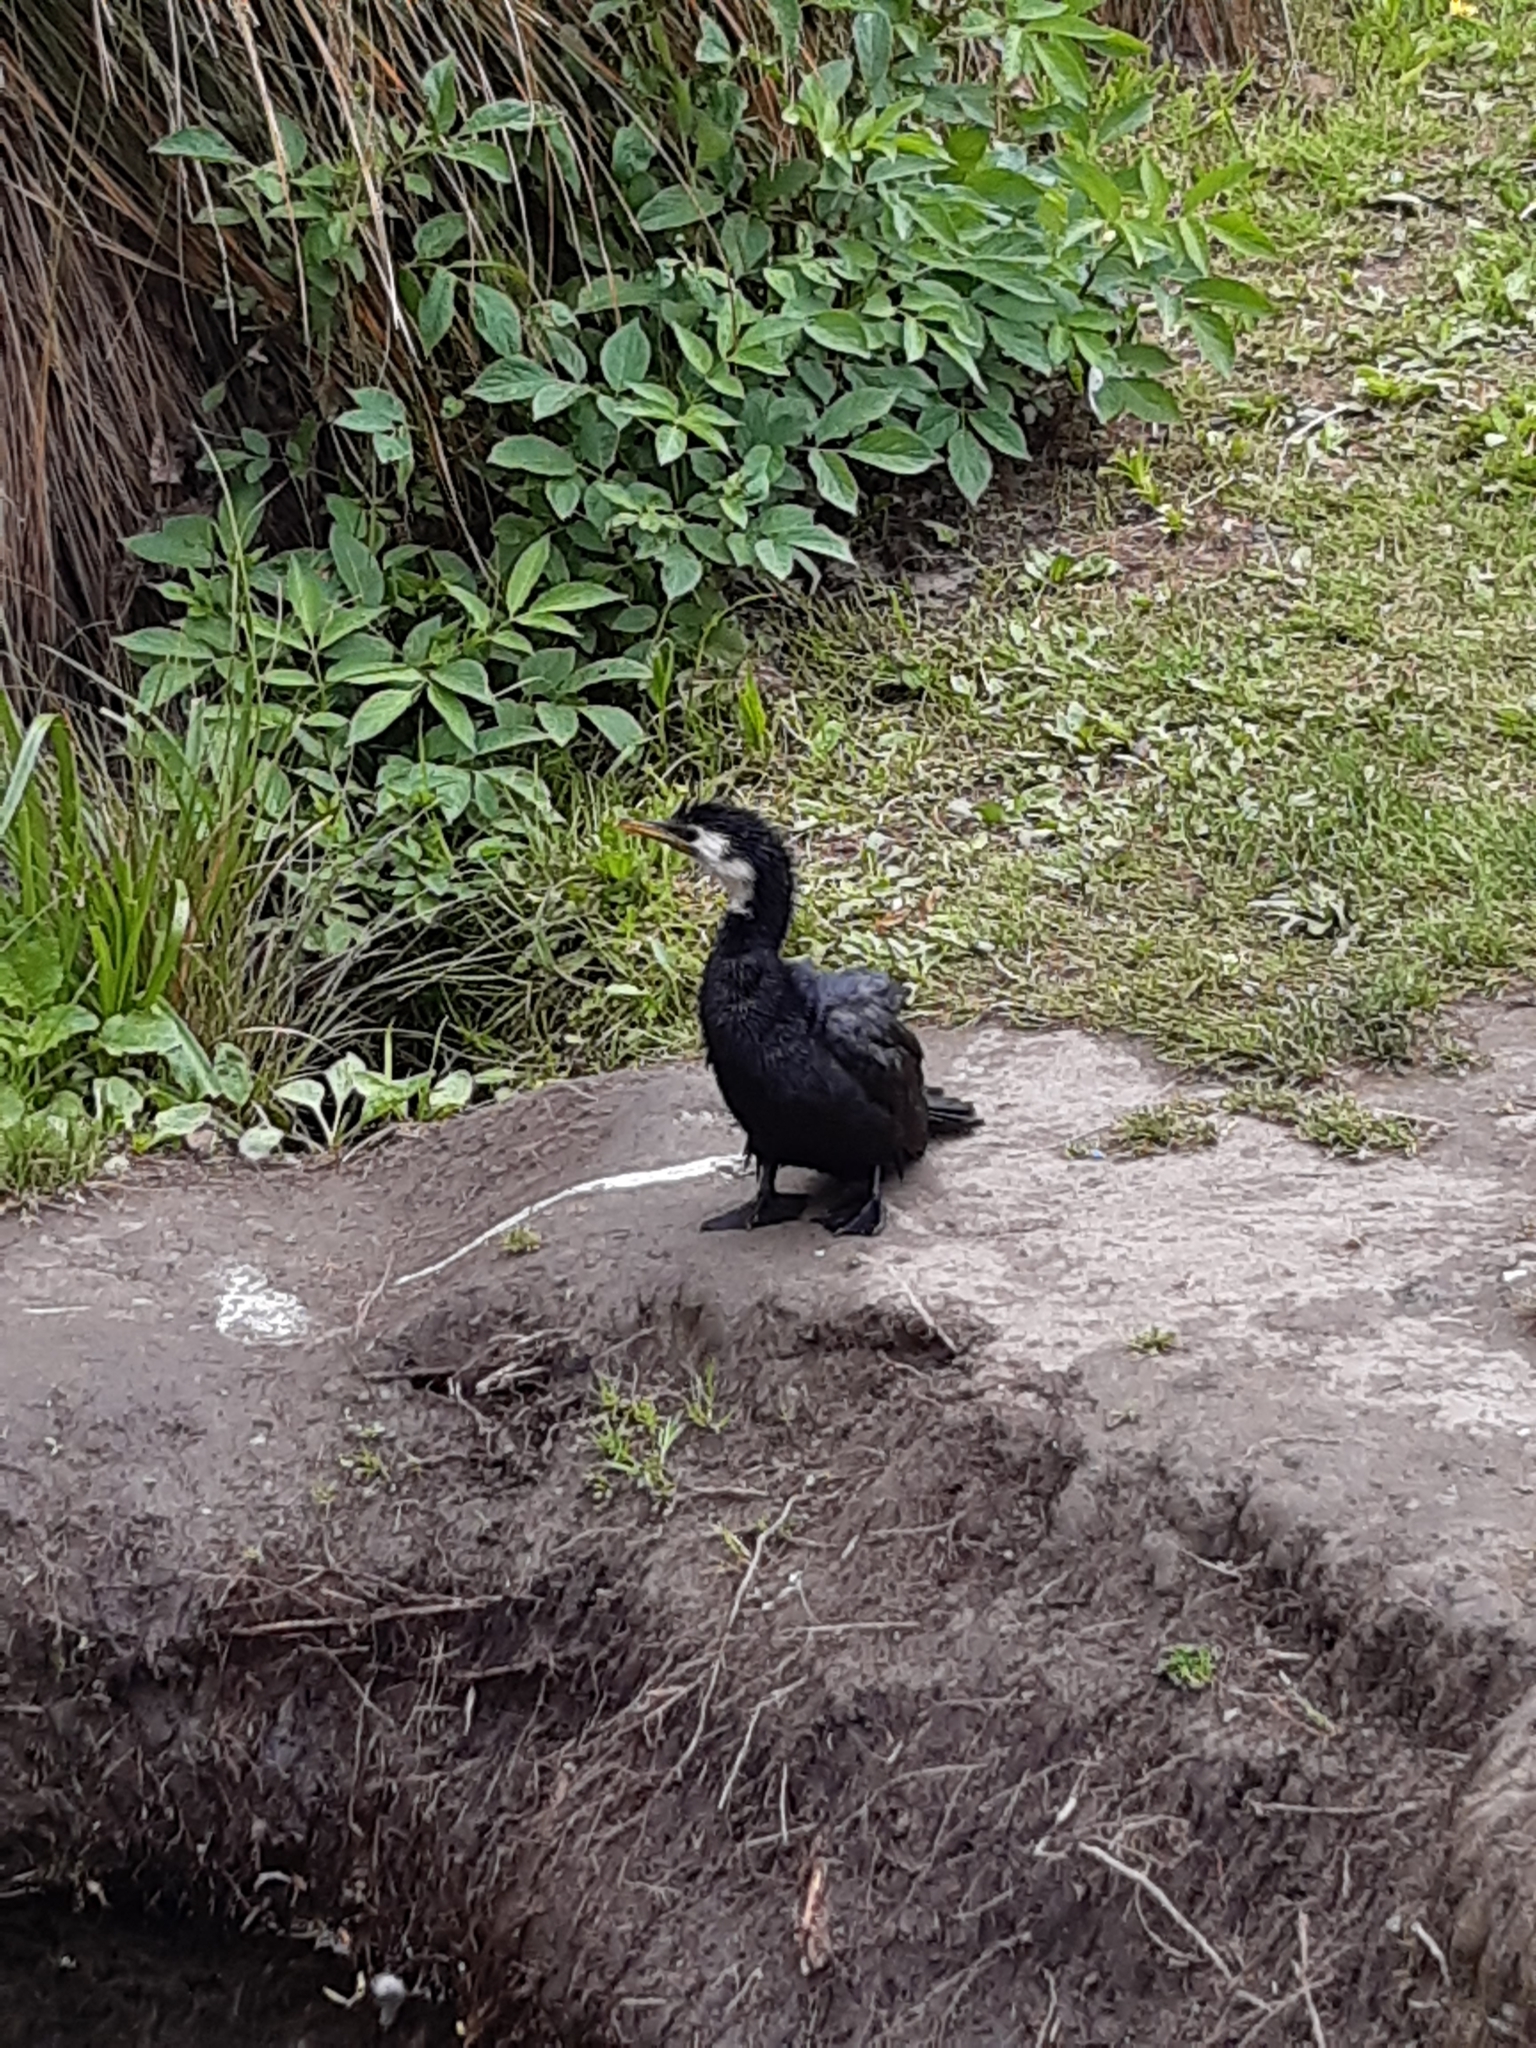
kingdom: Animalia
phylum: Chordata
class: Aves
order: Suliformes
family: Phalacrocoracidae
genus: Microcarbo
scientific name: Microcarbo melanoleucos
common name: Little pied cormorant
